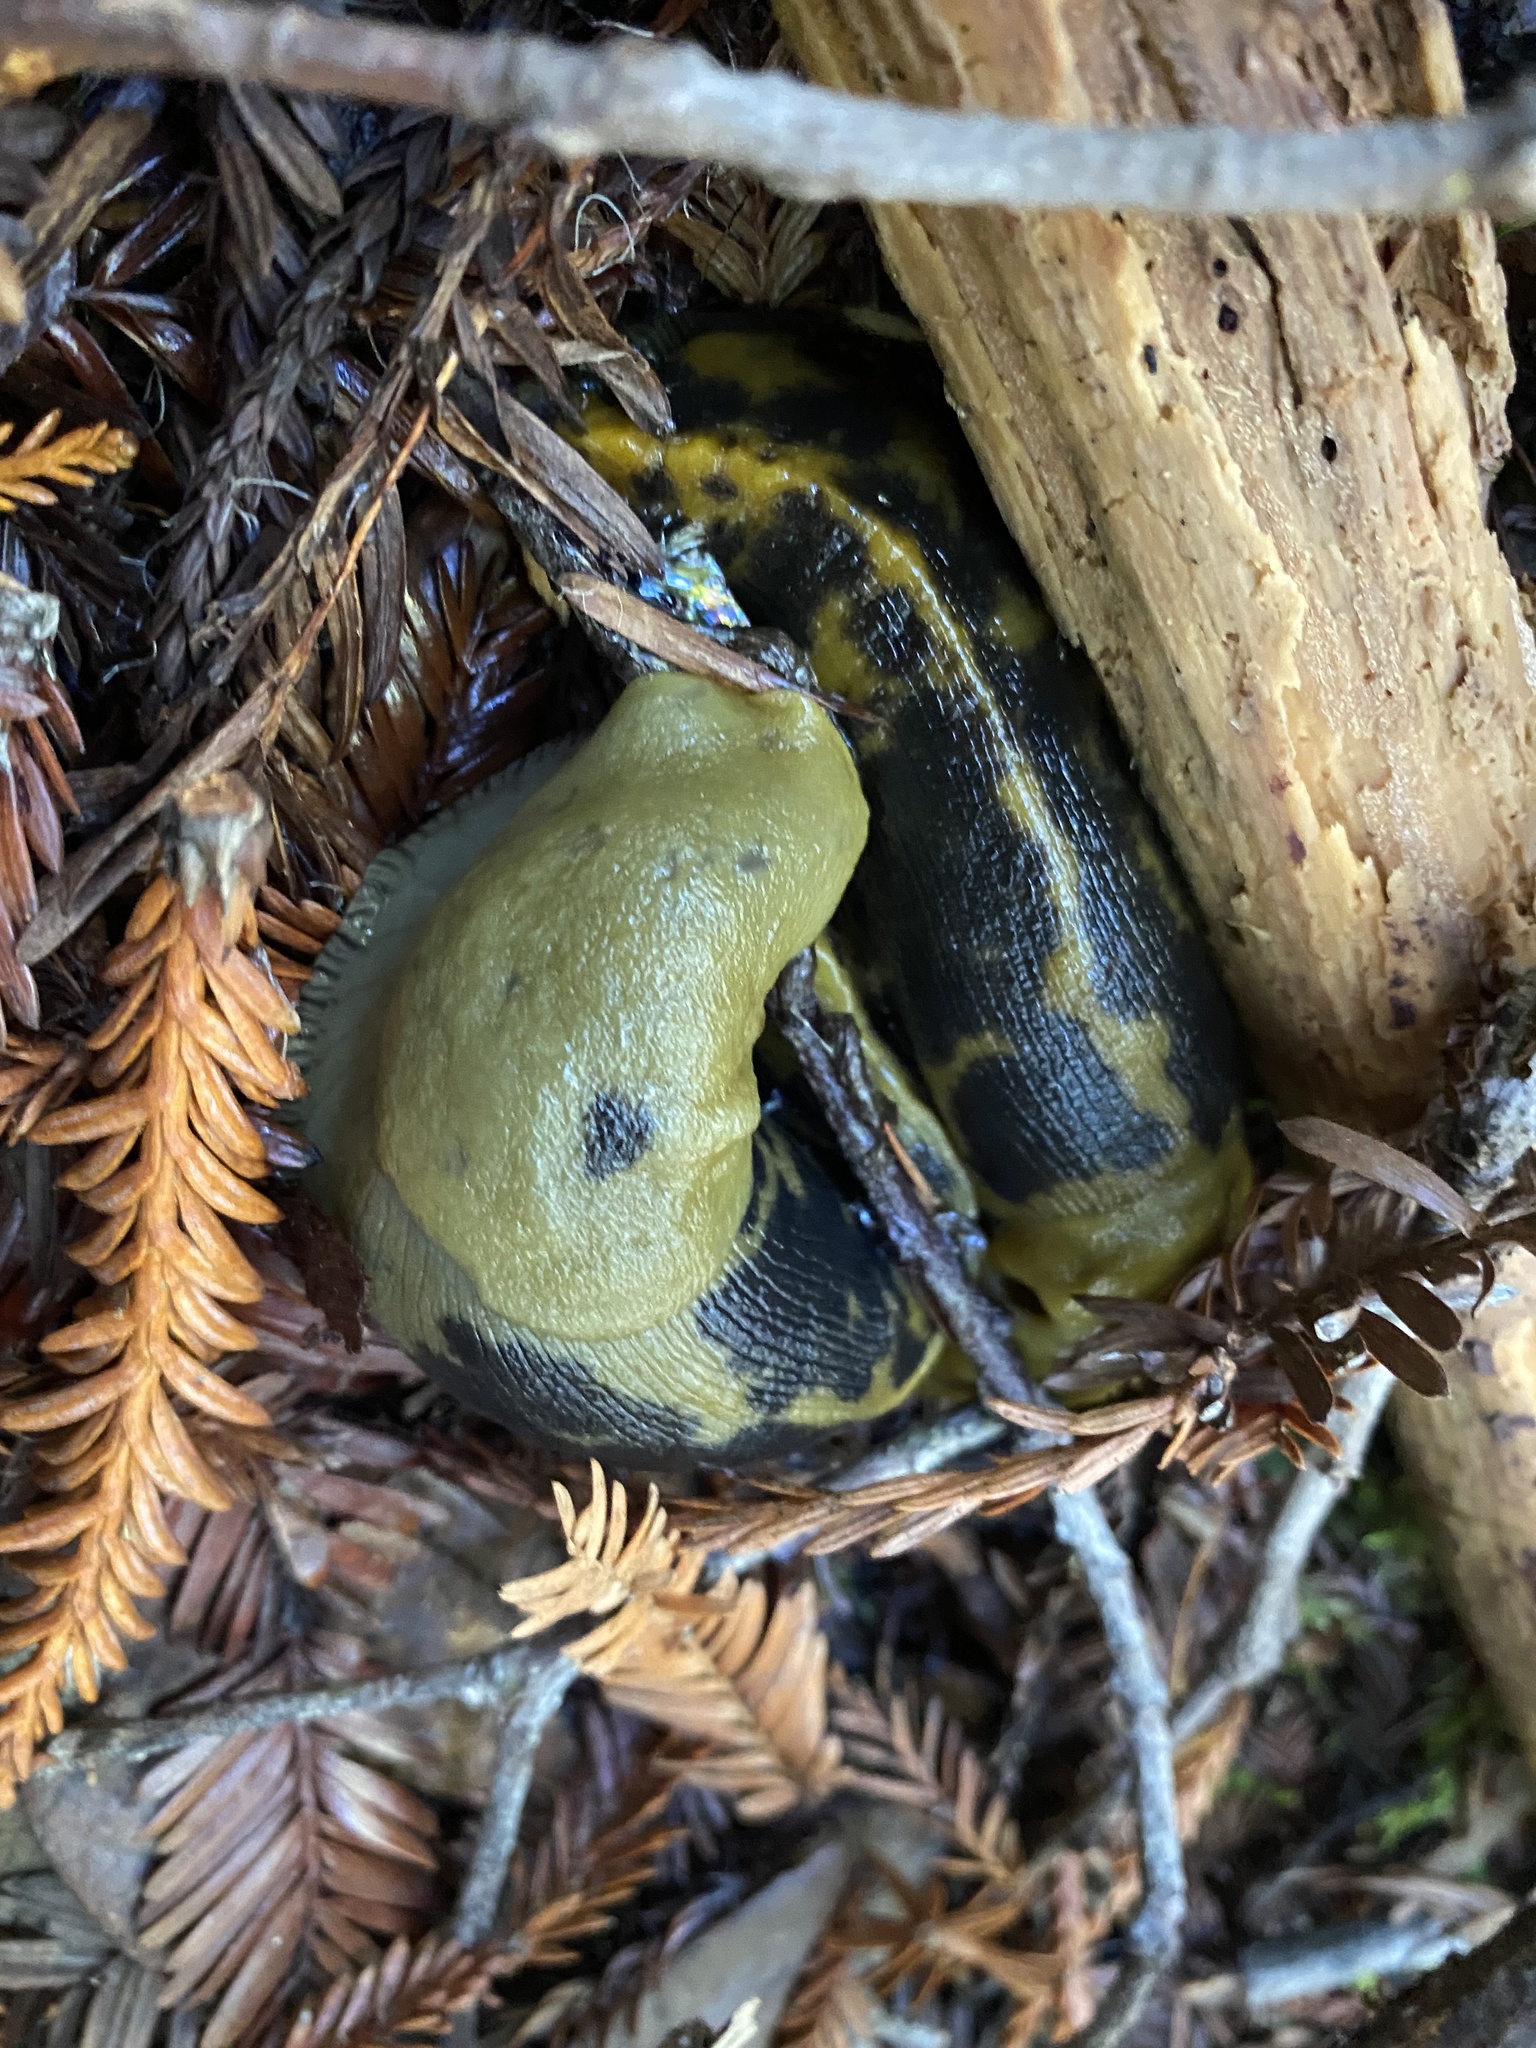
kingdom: Animalia
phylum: Mollusca
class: Gastropoda
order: Stylommatophora
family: Ariolimacidae
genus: Ariolimax
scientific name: Ariolimax buttoni
